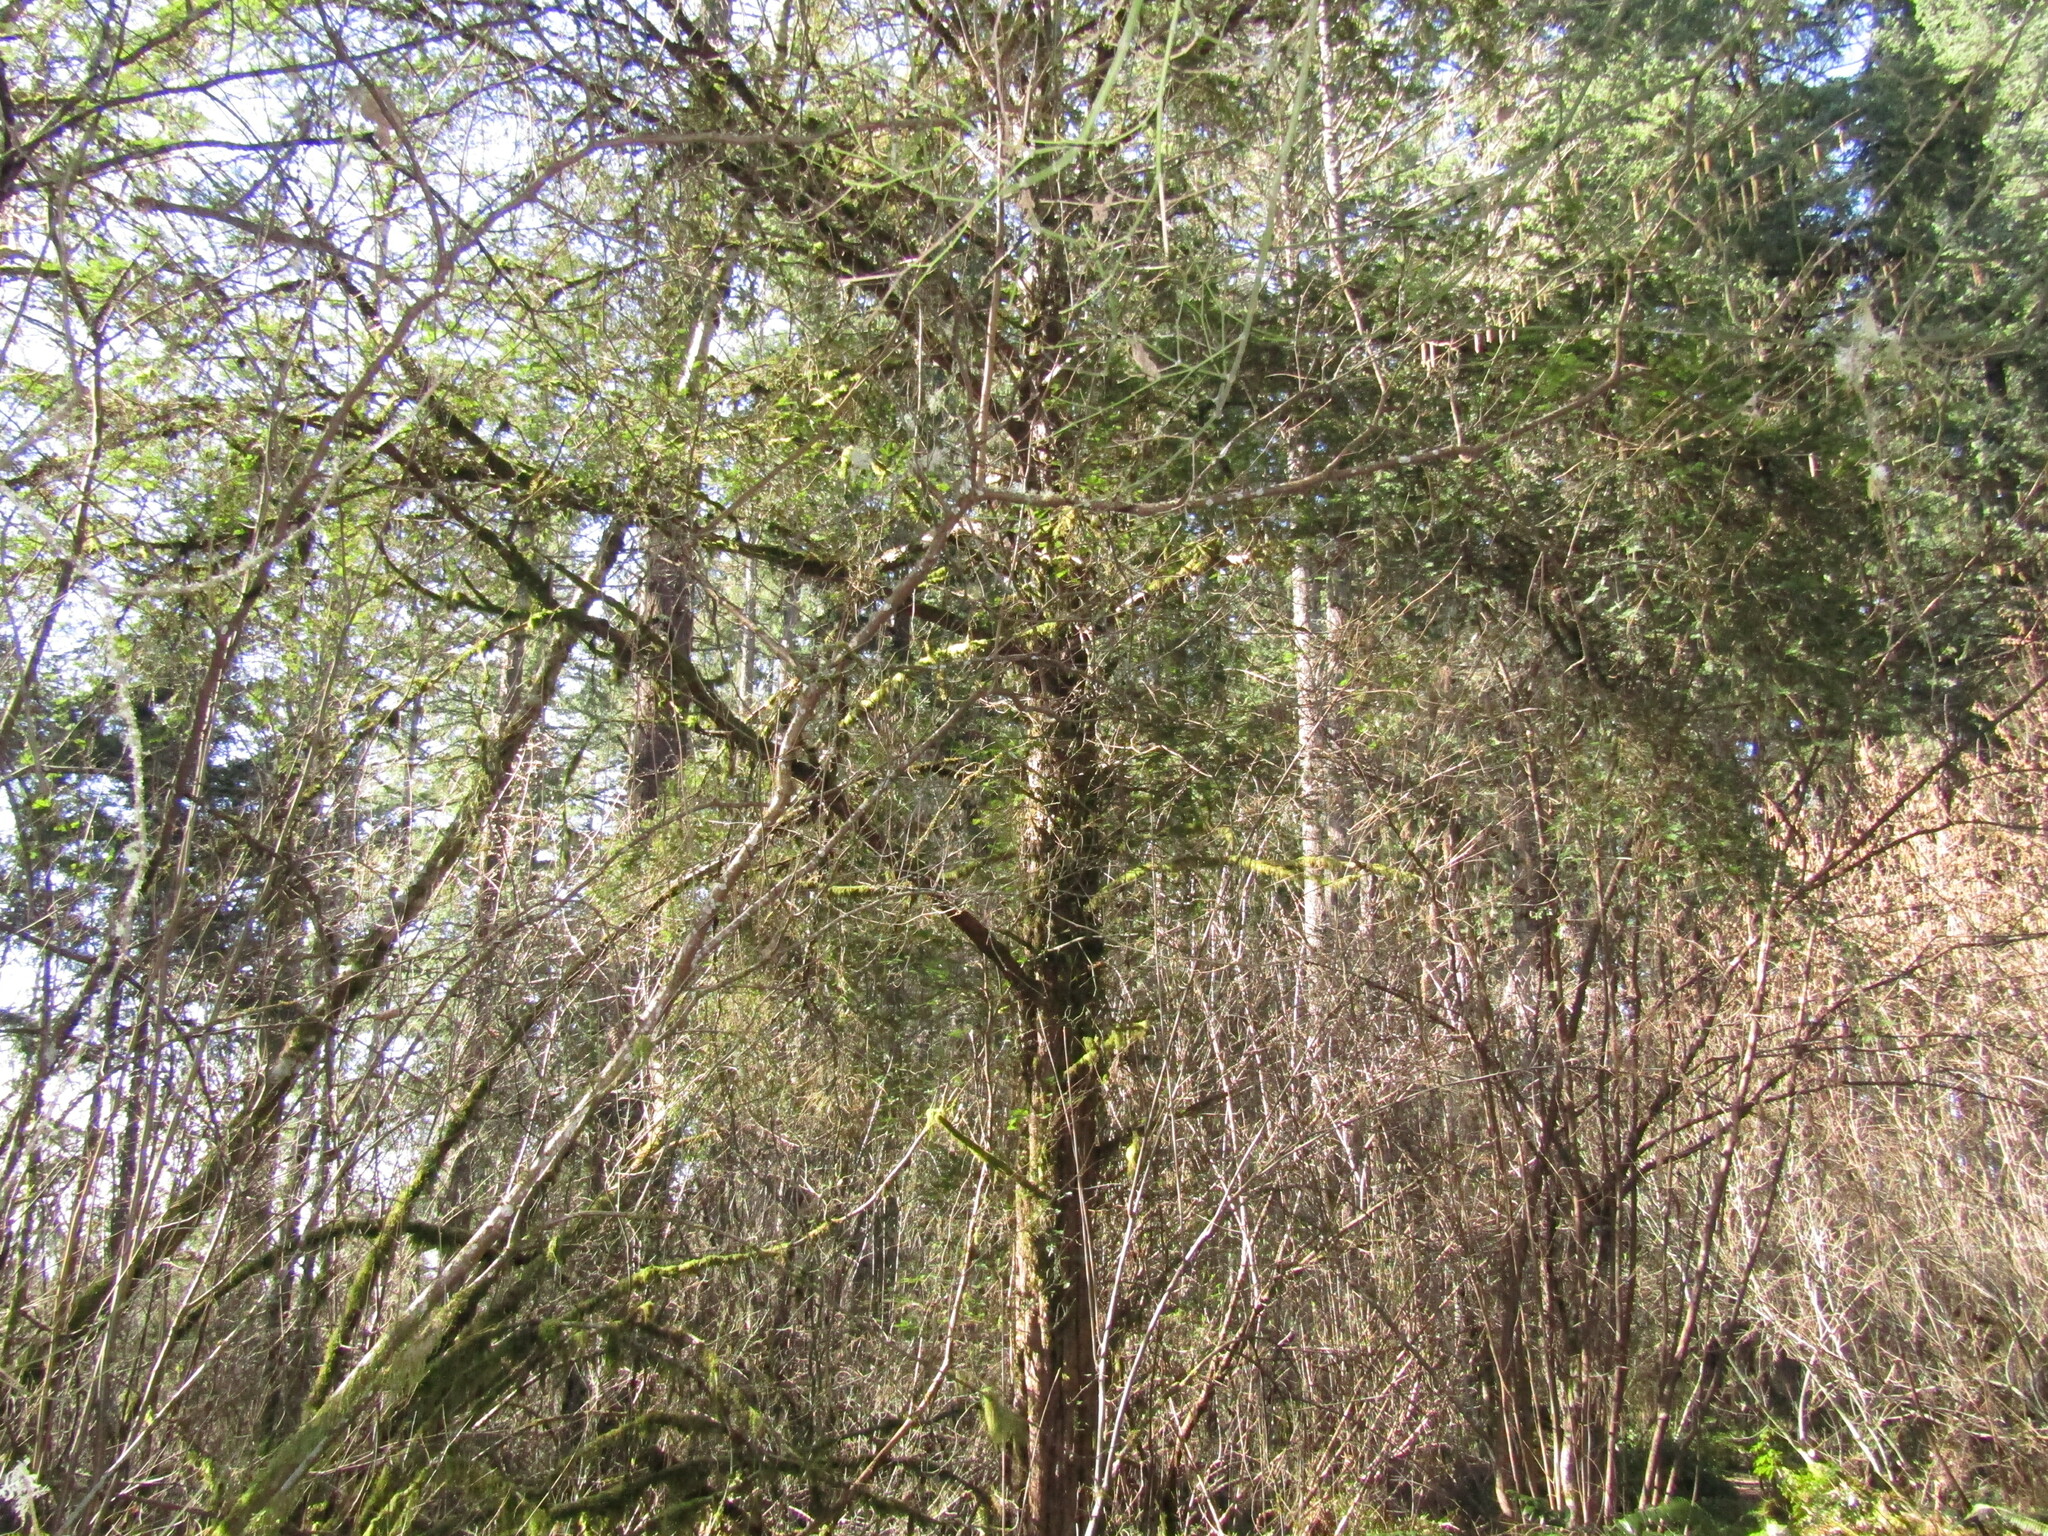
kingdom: Plantae
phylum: Tracheophyta
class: Pinopsida
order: Pinales
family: Taxaceae
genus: Taxus
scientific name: Taxus brevifolia
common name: Pacific yew
